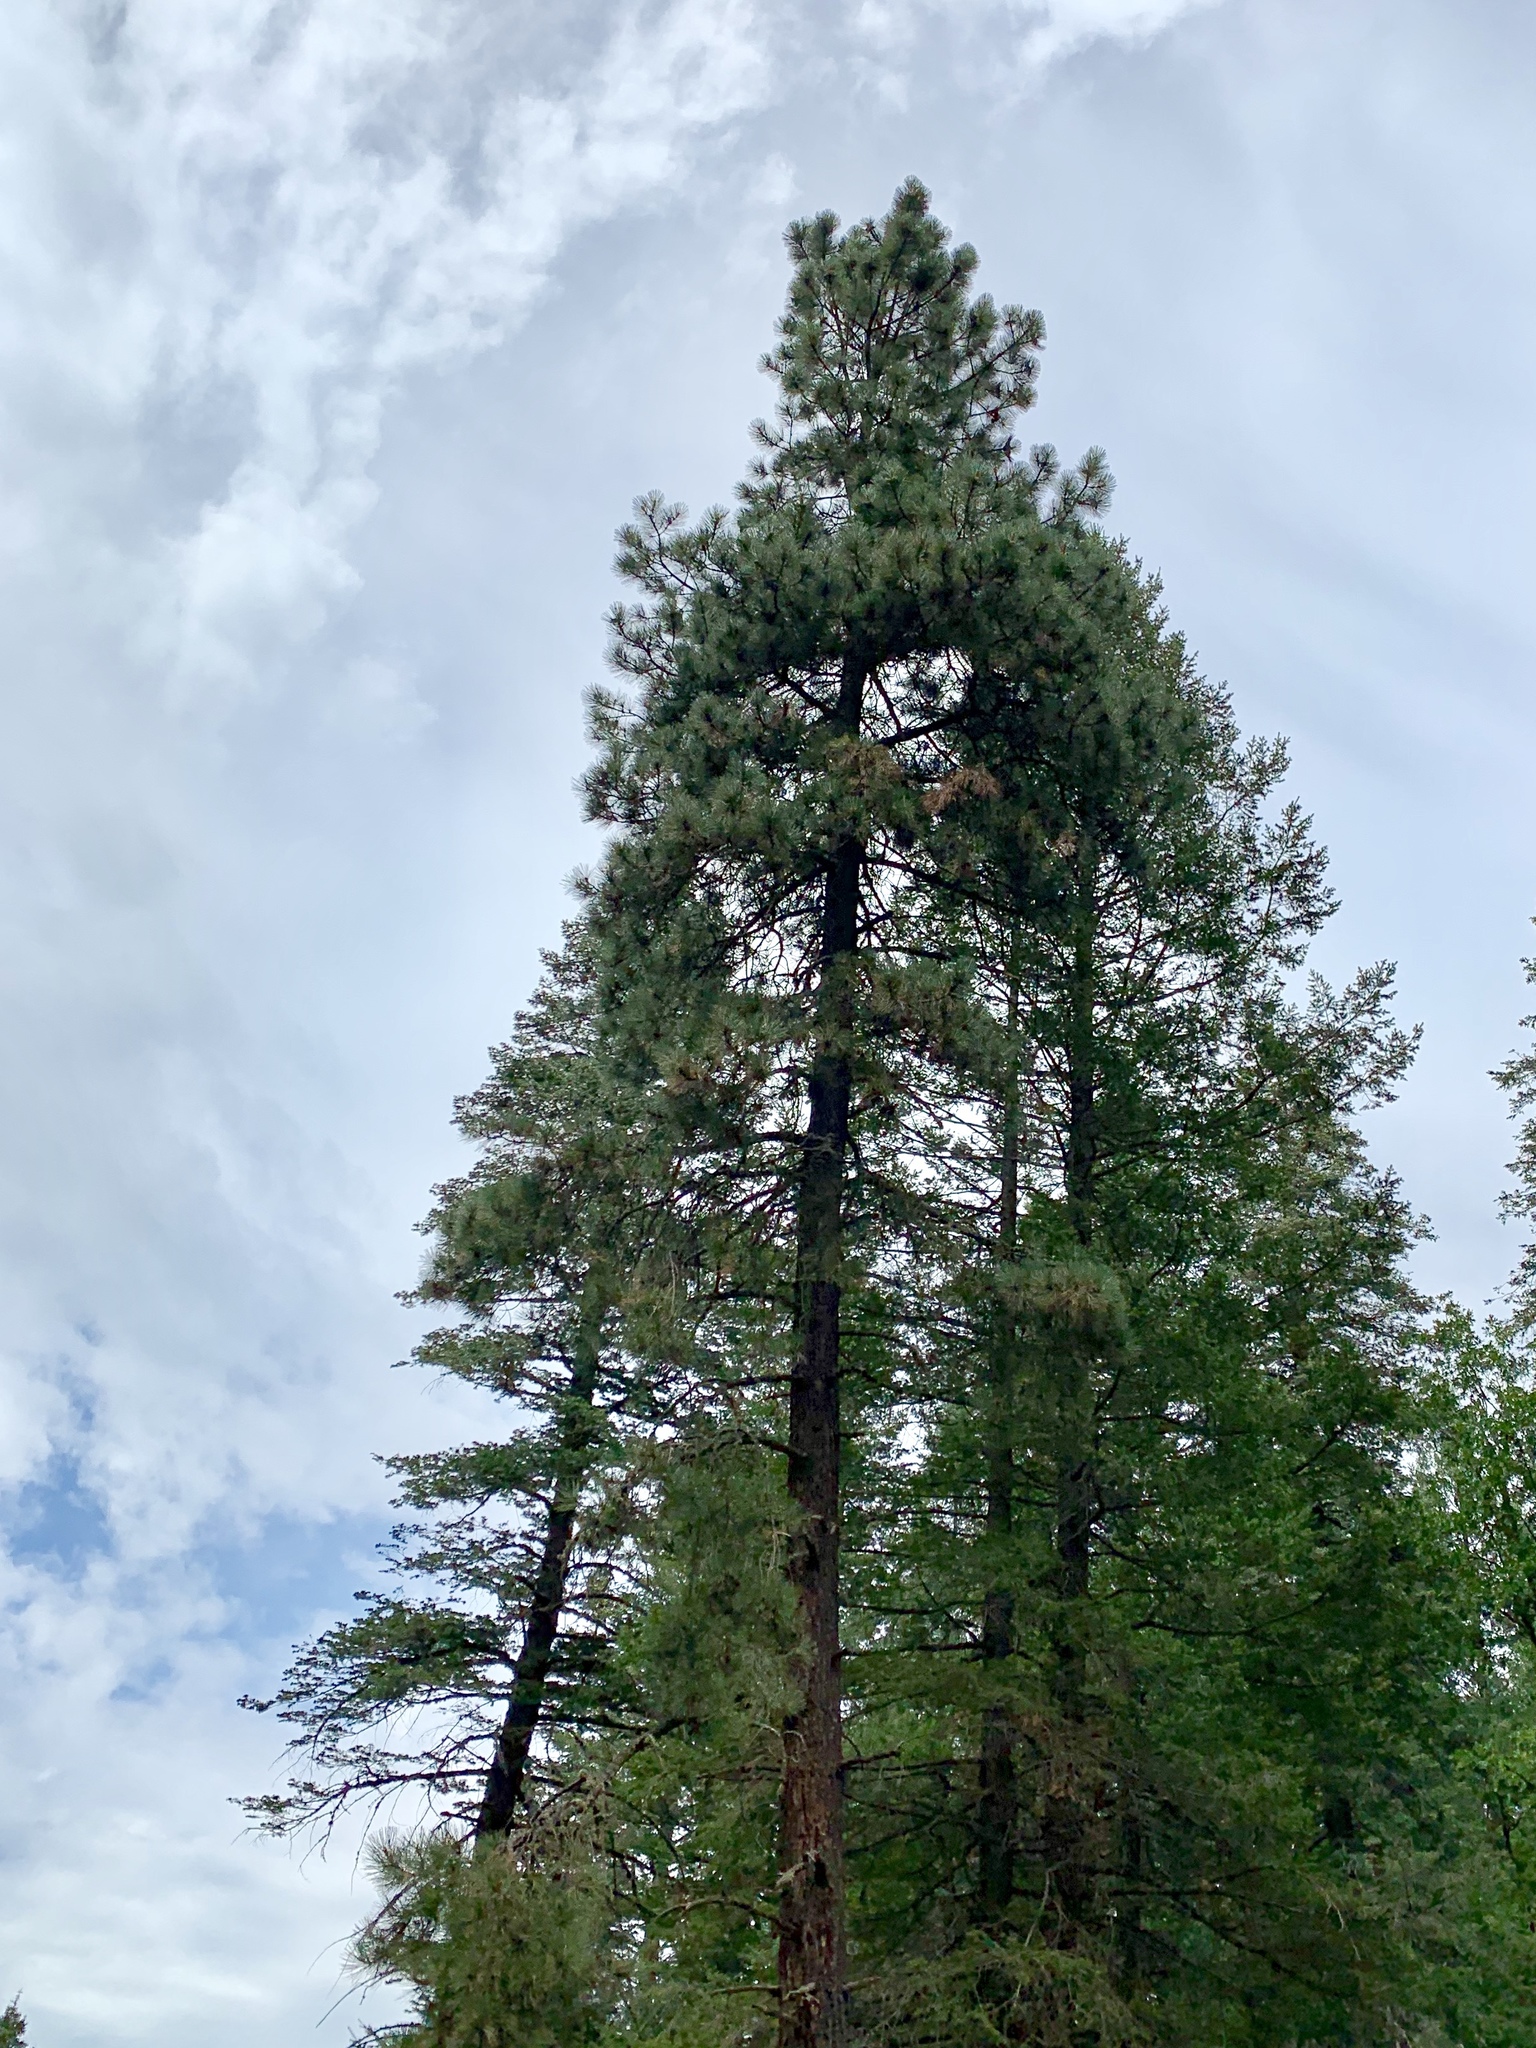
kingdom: Plantae
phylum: Tracheophyta
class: Pinopsida
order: Pinales
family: Pinaceae
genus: Pinus
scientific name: Pinus ponderosa
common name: Western yellow-pine
